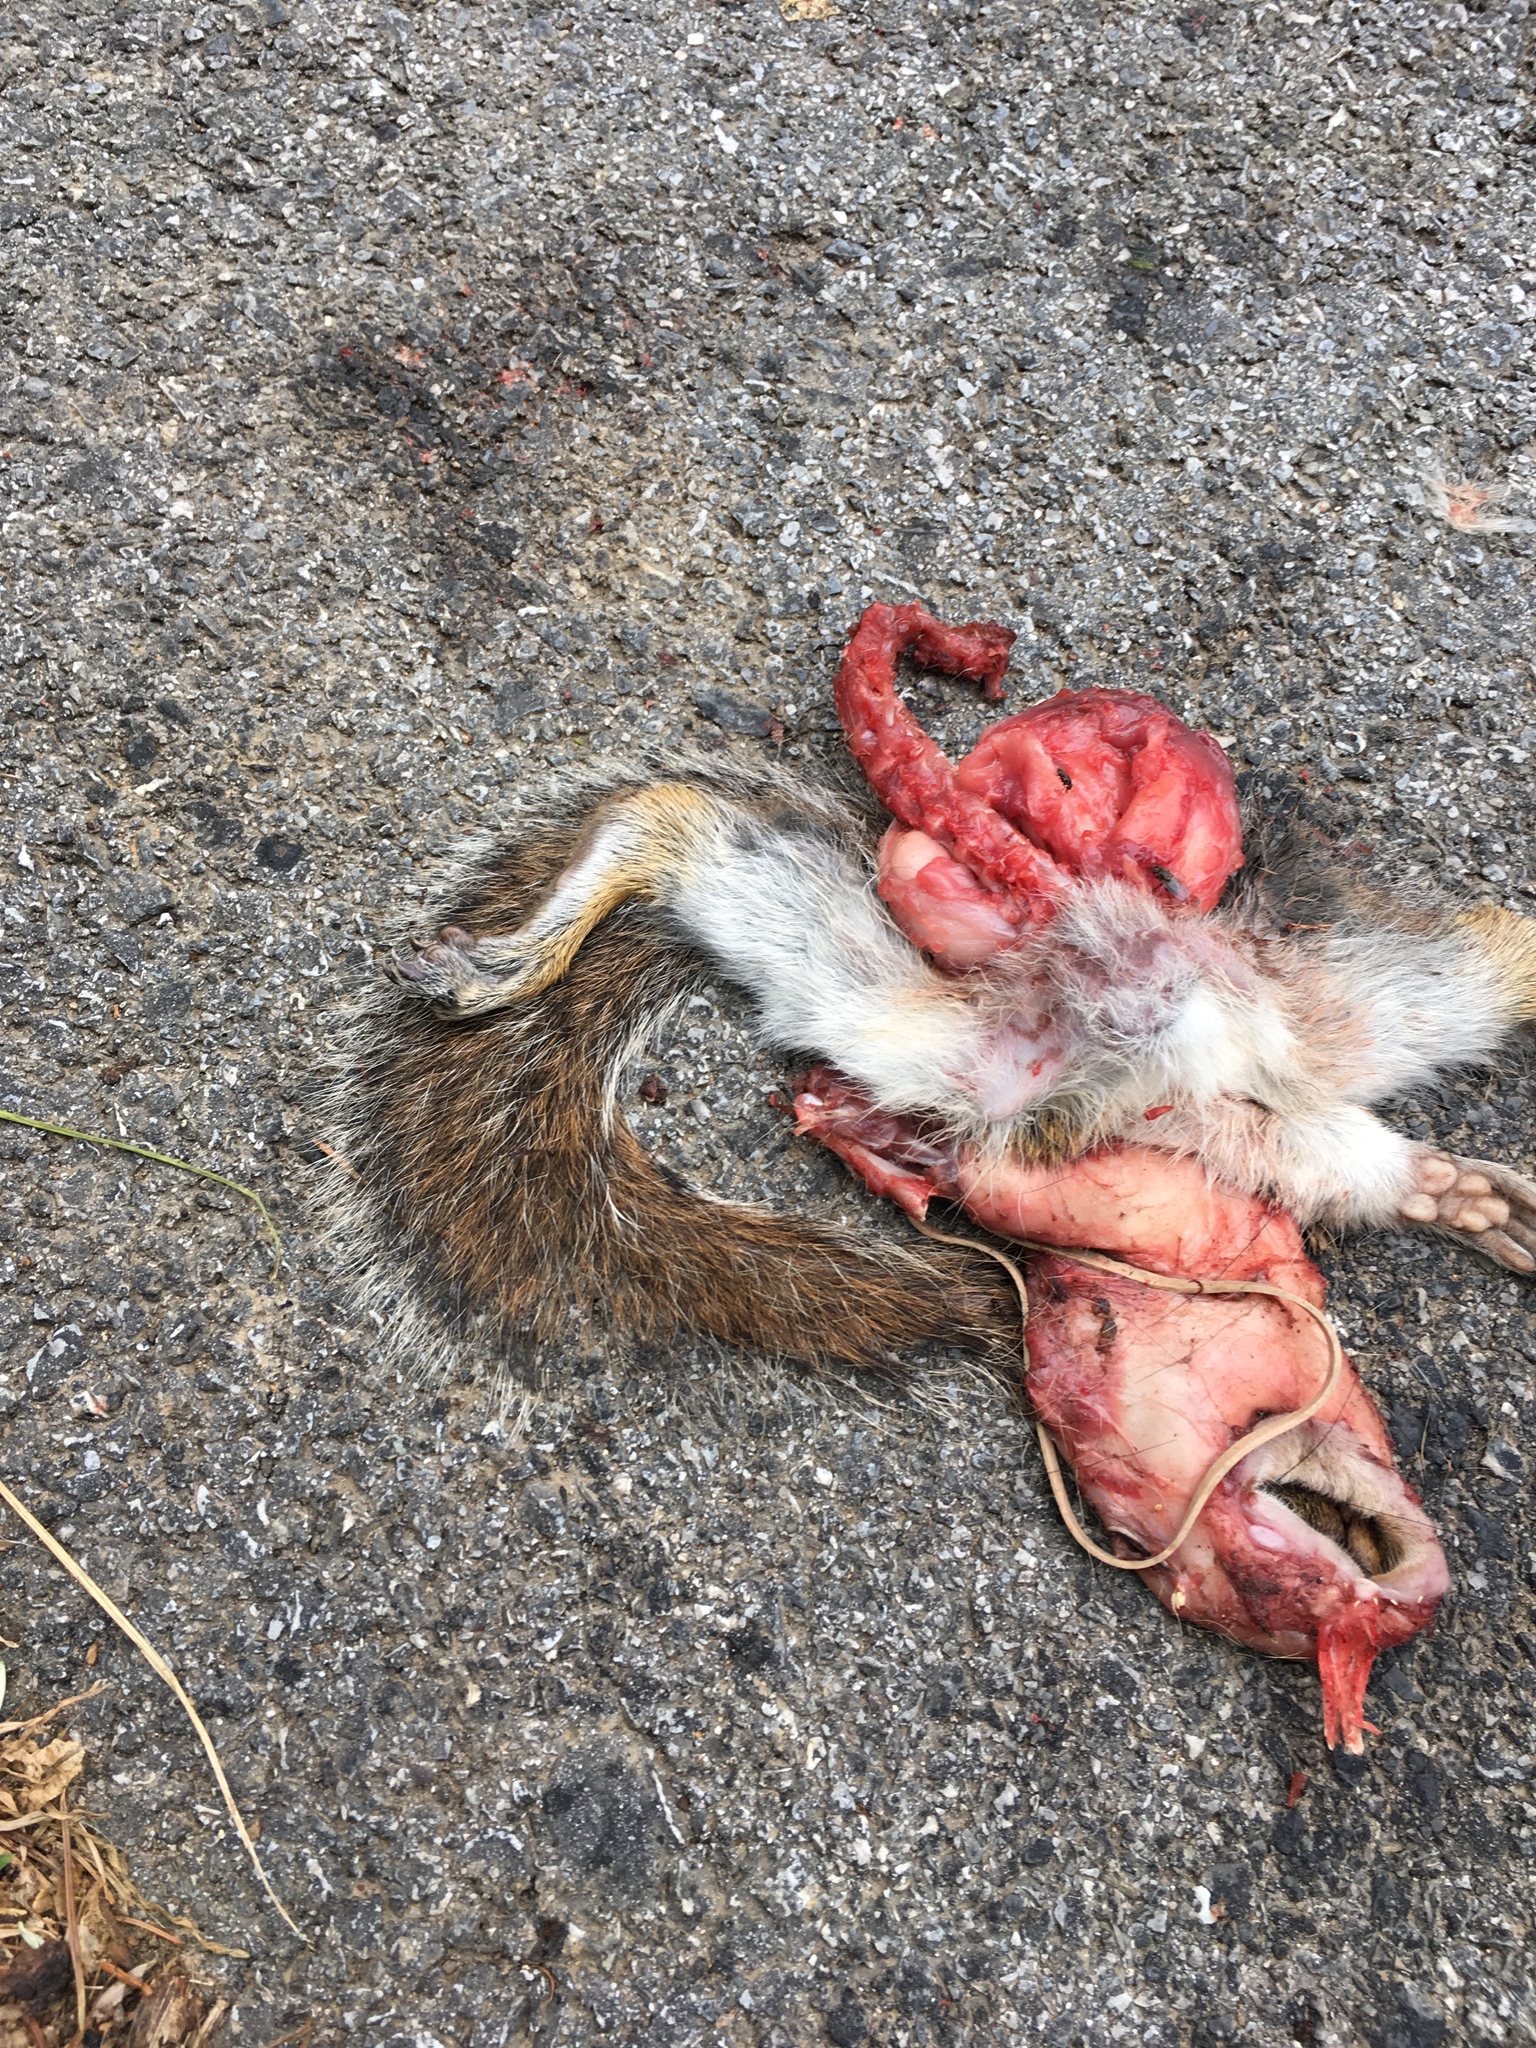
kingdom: Animalia
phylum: Chordata
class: Mammalia
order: Rodentia
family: Sciuridae
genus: Sciurus
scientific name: Sciurus carolinensis
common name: Eastern gray squirrel
